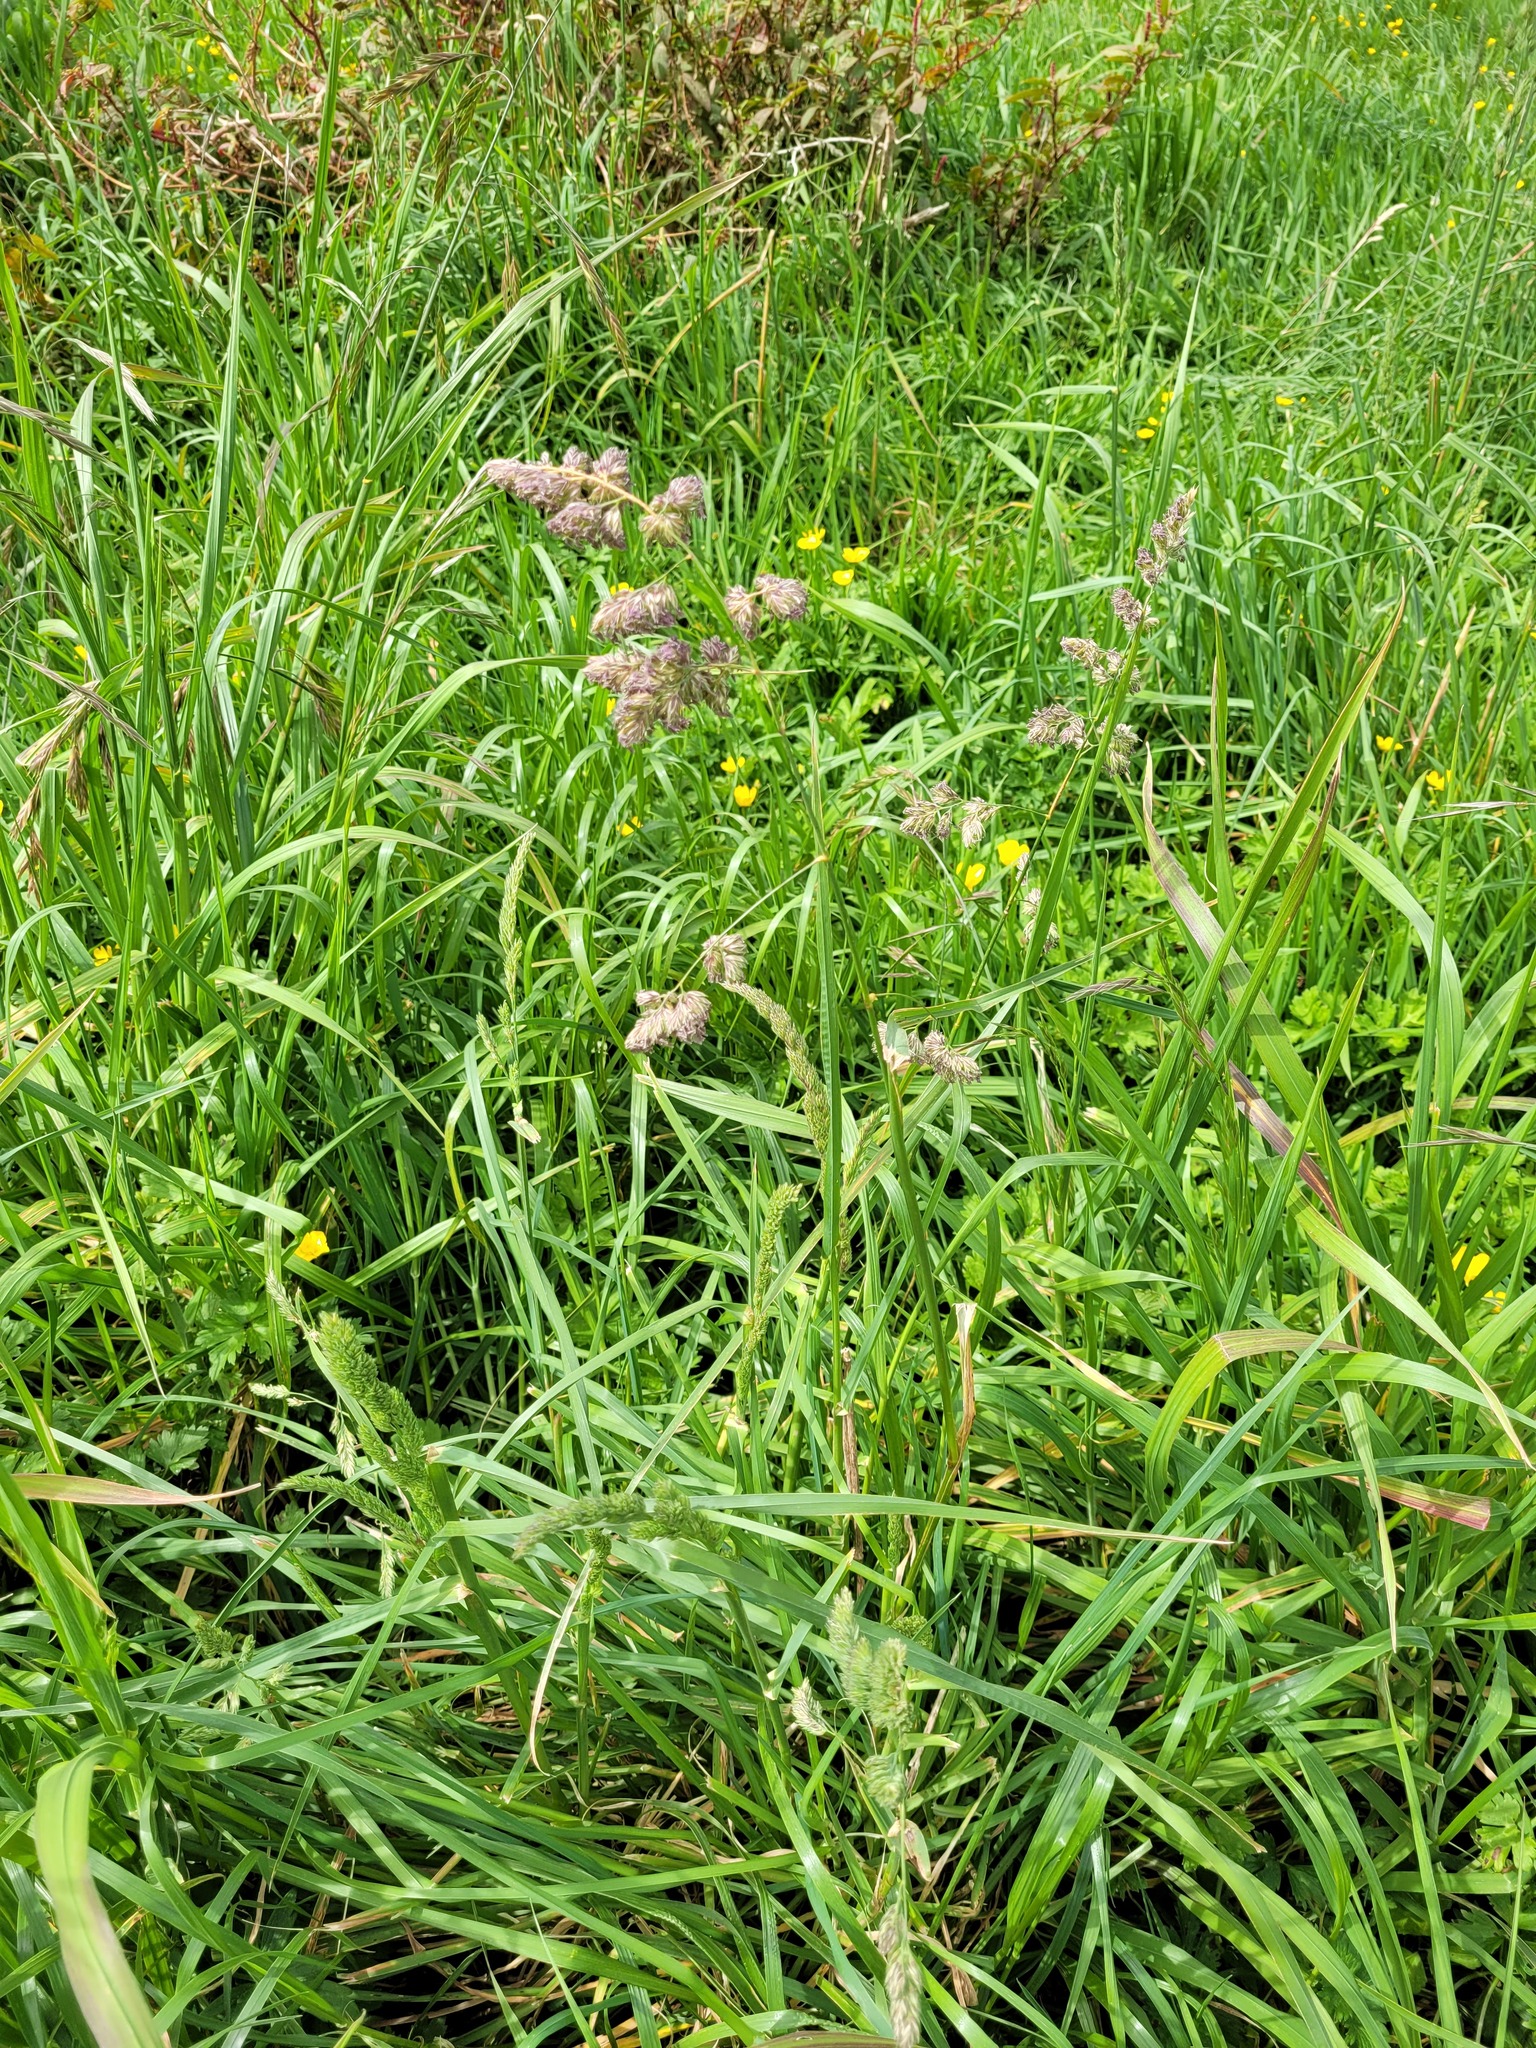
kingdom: Plantae
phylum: Tracheophyta
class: Liliopsida
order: Poales
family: Poaceae
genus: Dactylis
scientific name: Dactylis glomerata
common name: Orchardgrass
